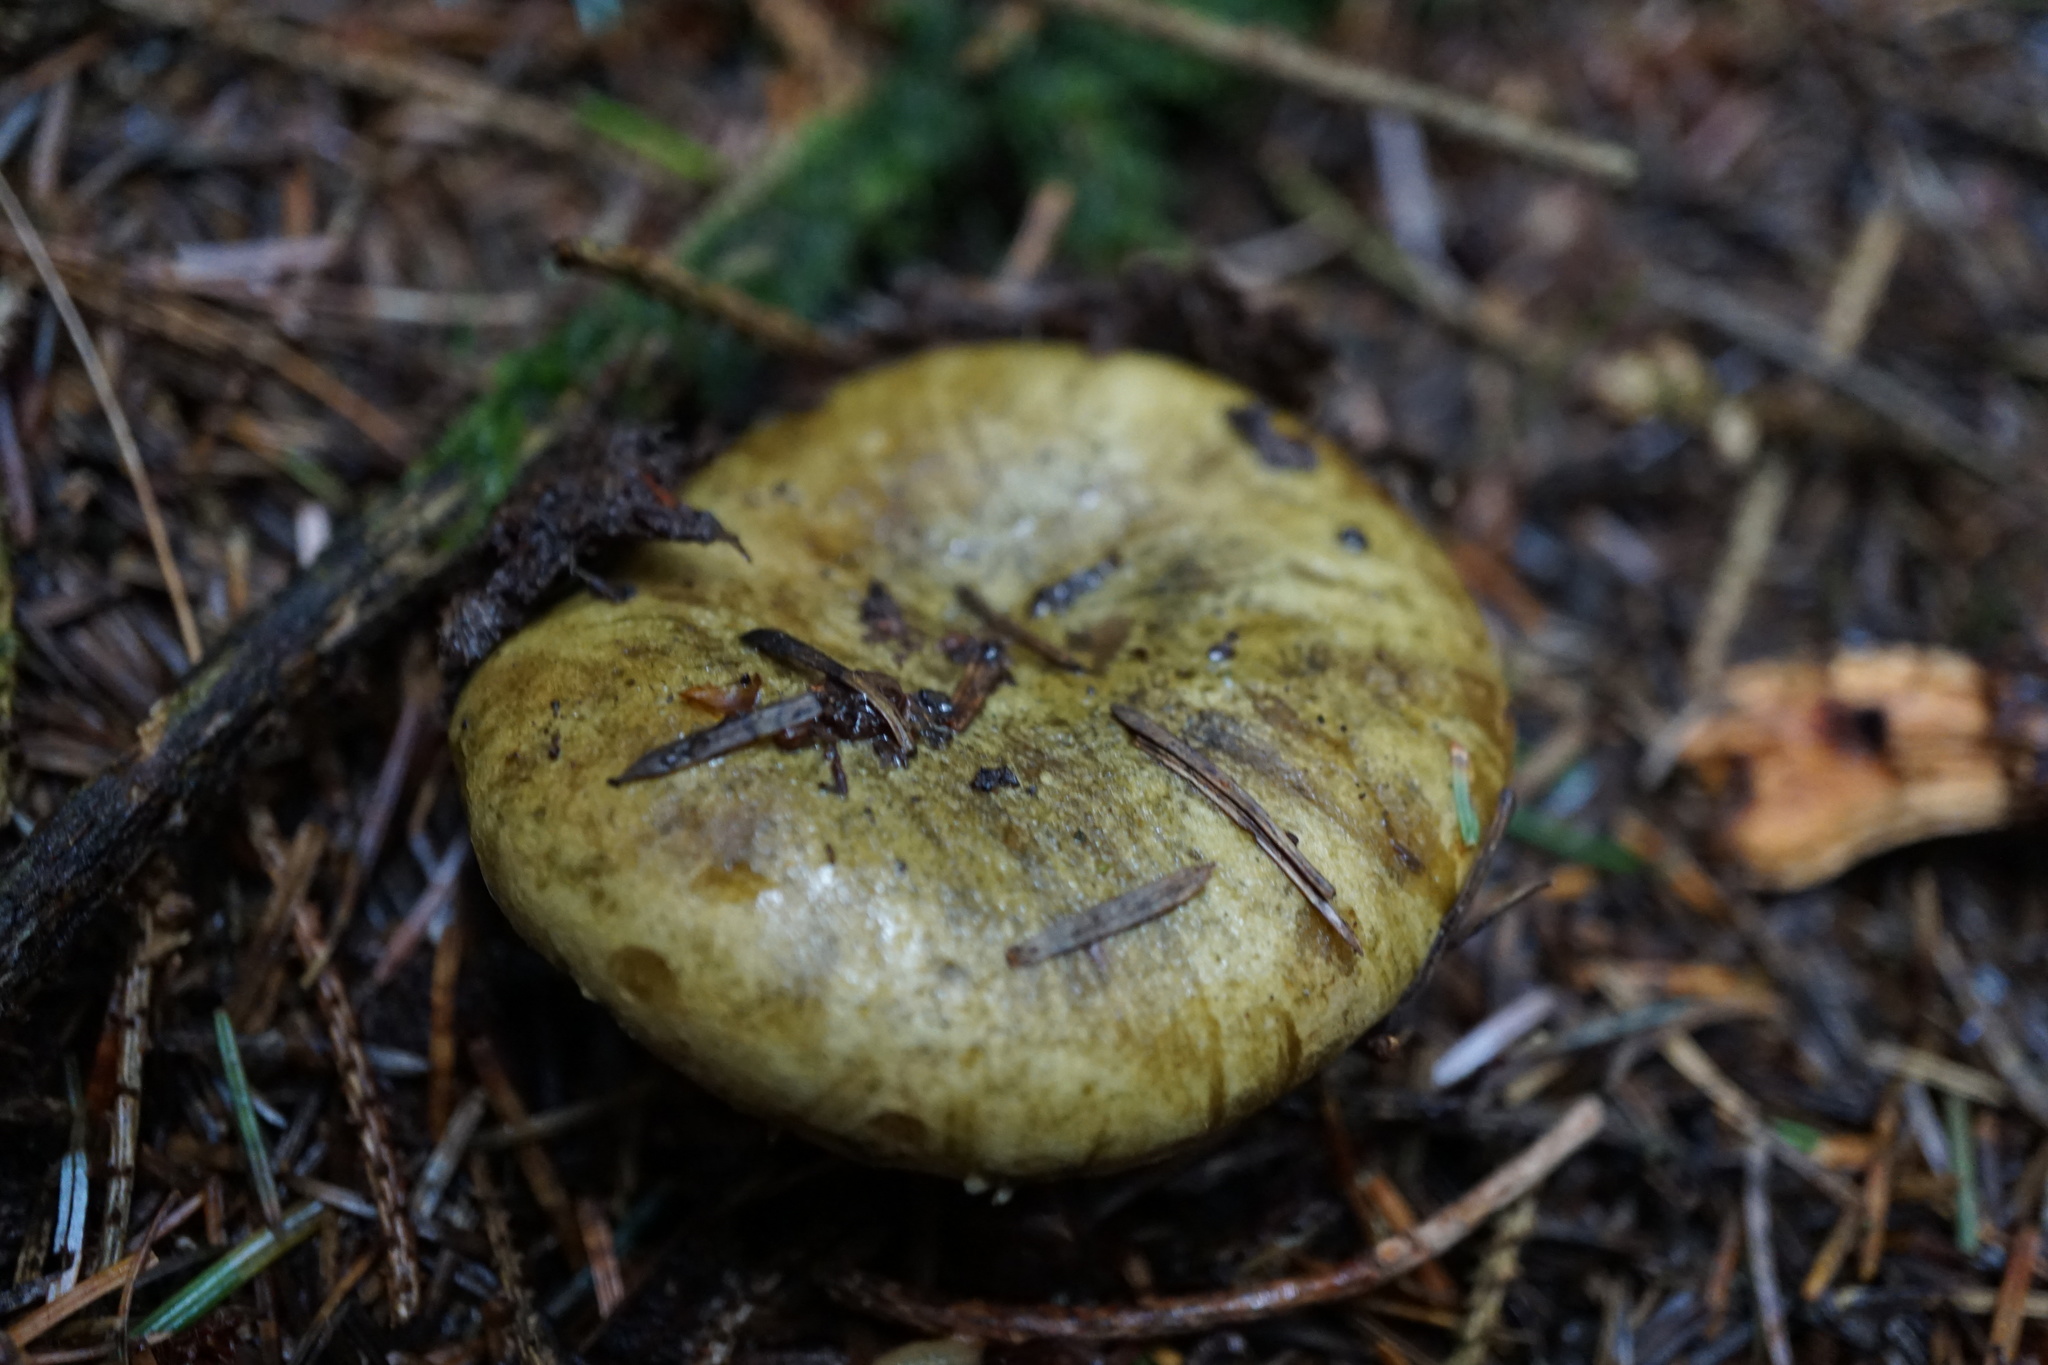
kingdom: Fungi
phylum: Basidiomycota
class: Agaricomycetes
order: Russulales
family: Russulaceae
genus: Lactarius
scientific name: Lactarius turpis
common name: Ugly milk-cap
